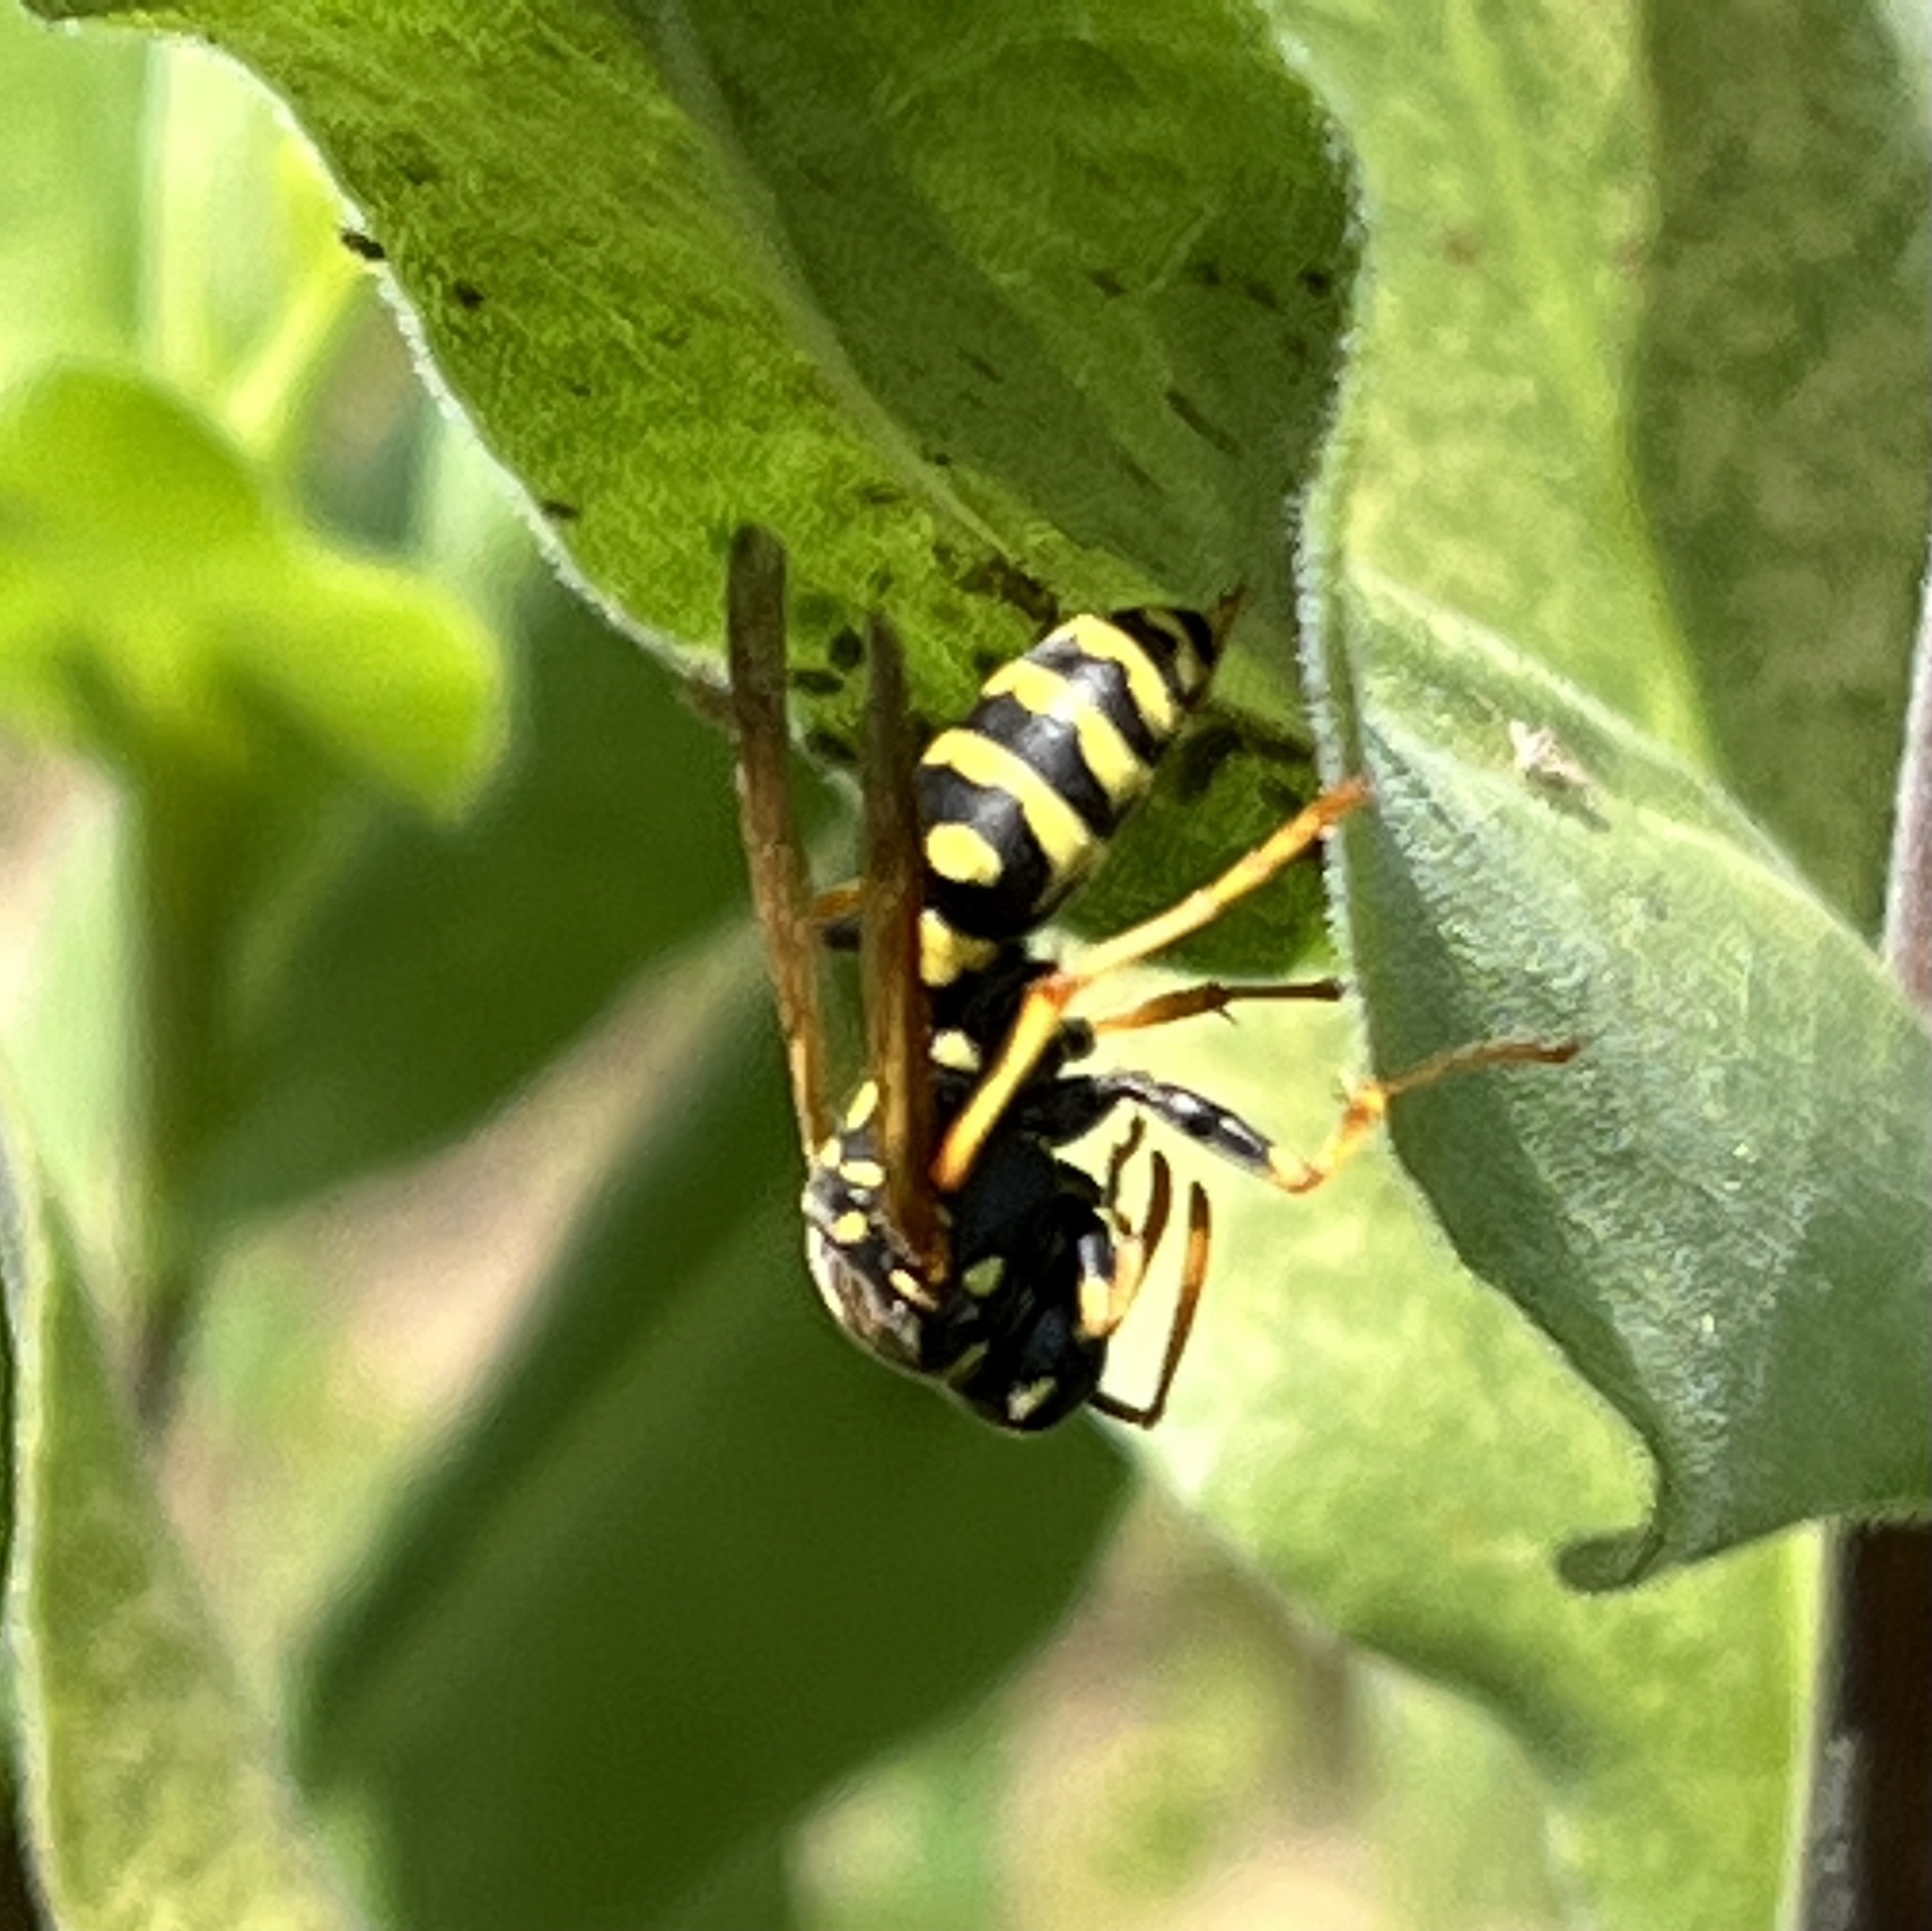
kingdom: Animalia
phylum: Arthropoda
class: Insecta
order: Hymenoptera
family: Eumenidae
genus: Polistes
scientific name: Polistes dominula
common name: Paper wasp
